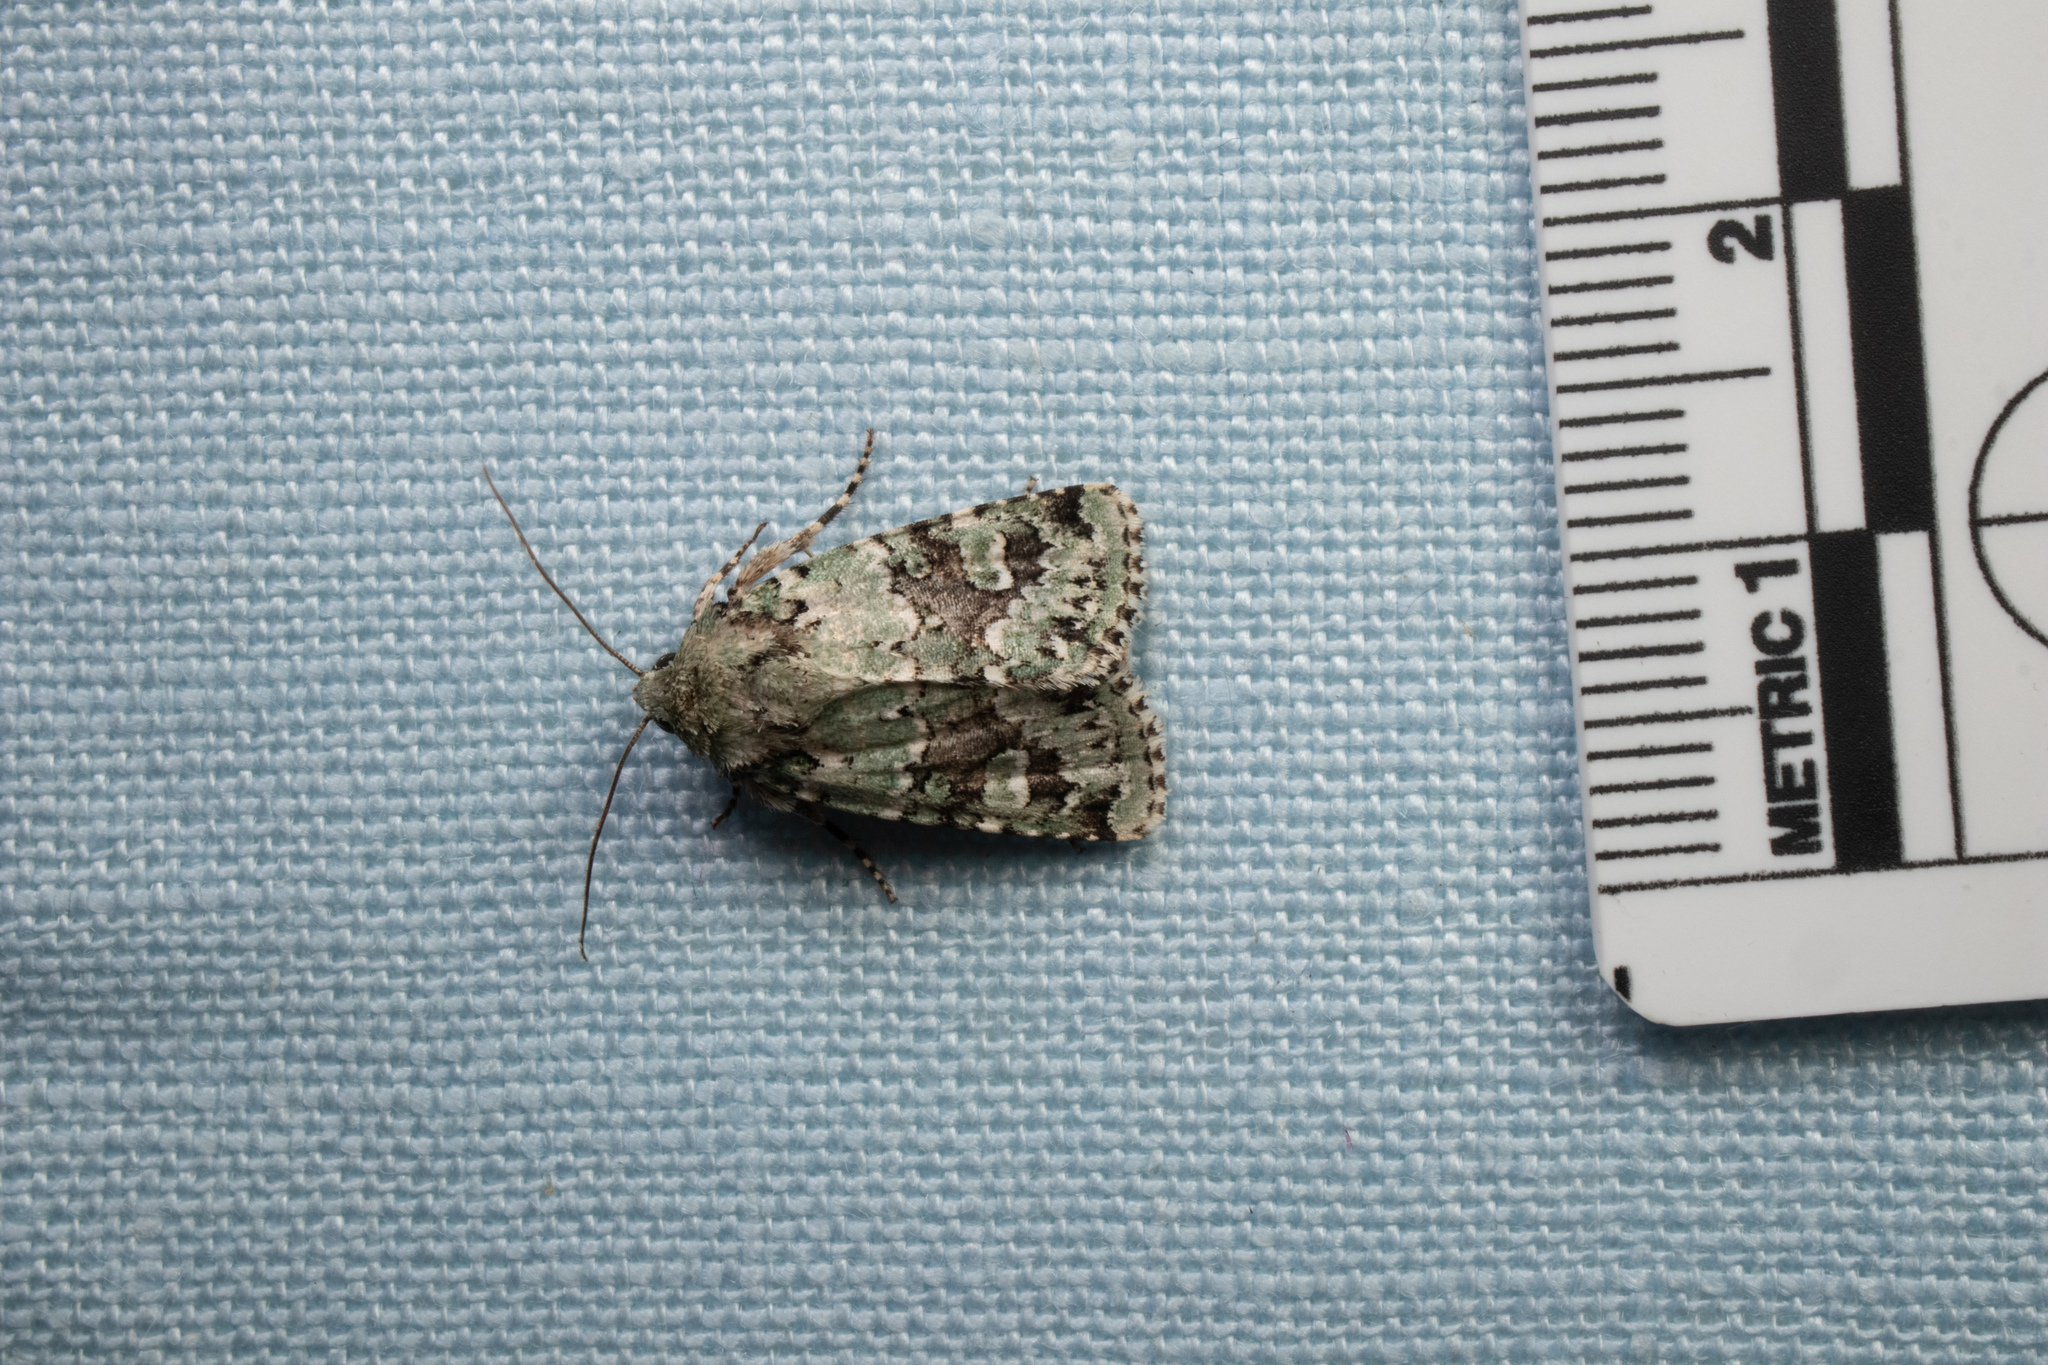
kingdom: Animalia
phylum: Arthropoda
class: Insecta
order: Lepidoptera
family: Noctuidae
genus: Lacinipolia
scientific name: Lacinipolia laudabilis
